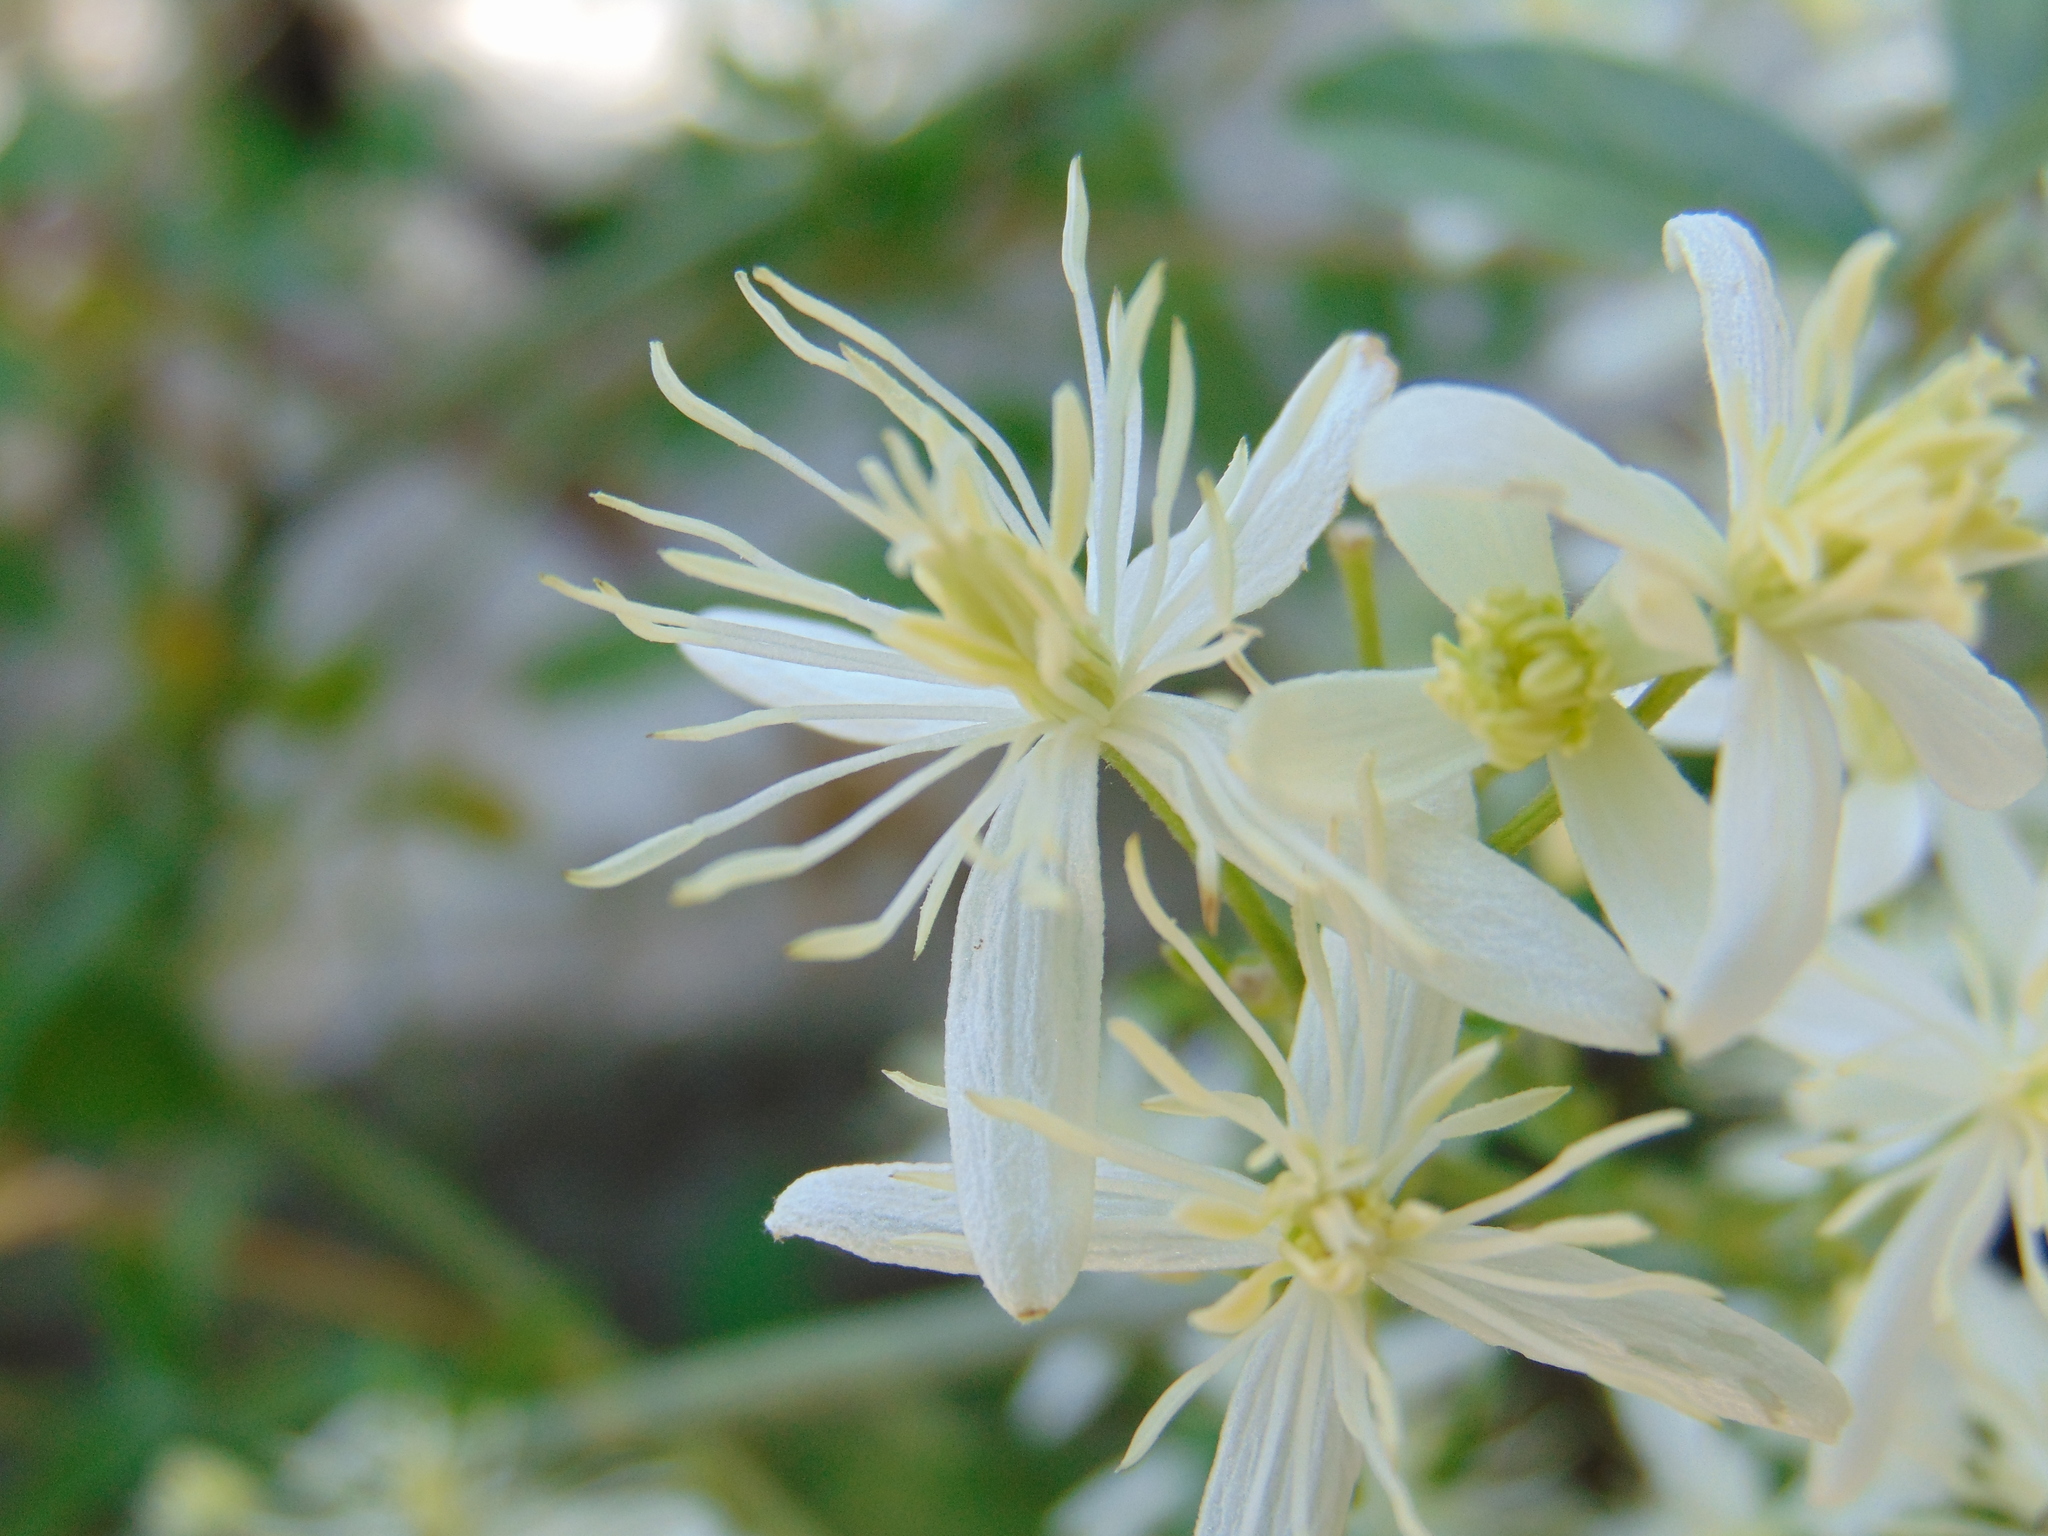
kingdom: Plantae
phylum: Tracheophyta
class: Magnoliopsida
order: Ranunculales
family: Ranunculaceae
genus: Clematis
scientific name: Clematis flammula
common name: Virgin's-bower
